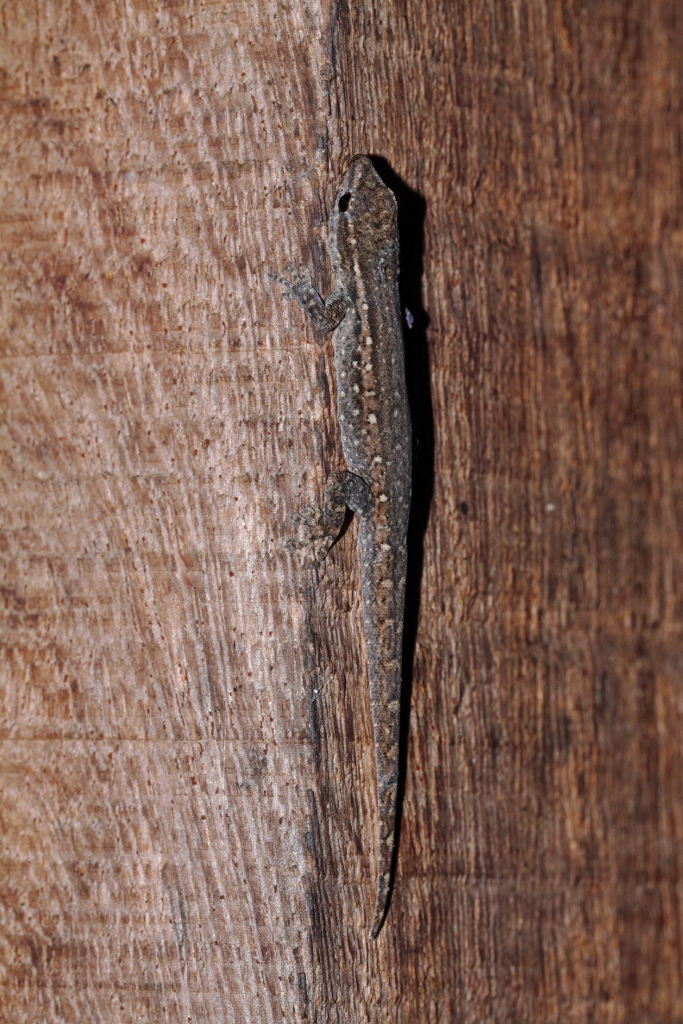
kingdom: Animalia
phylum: Chordata
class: Squamata
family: Gekkonidae
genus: Lygodactylus
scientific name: Lygodactylus capensis
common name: Cape dwarf gecko
